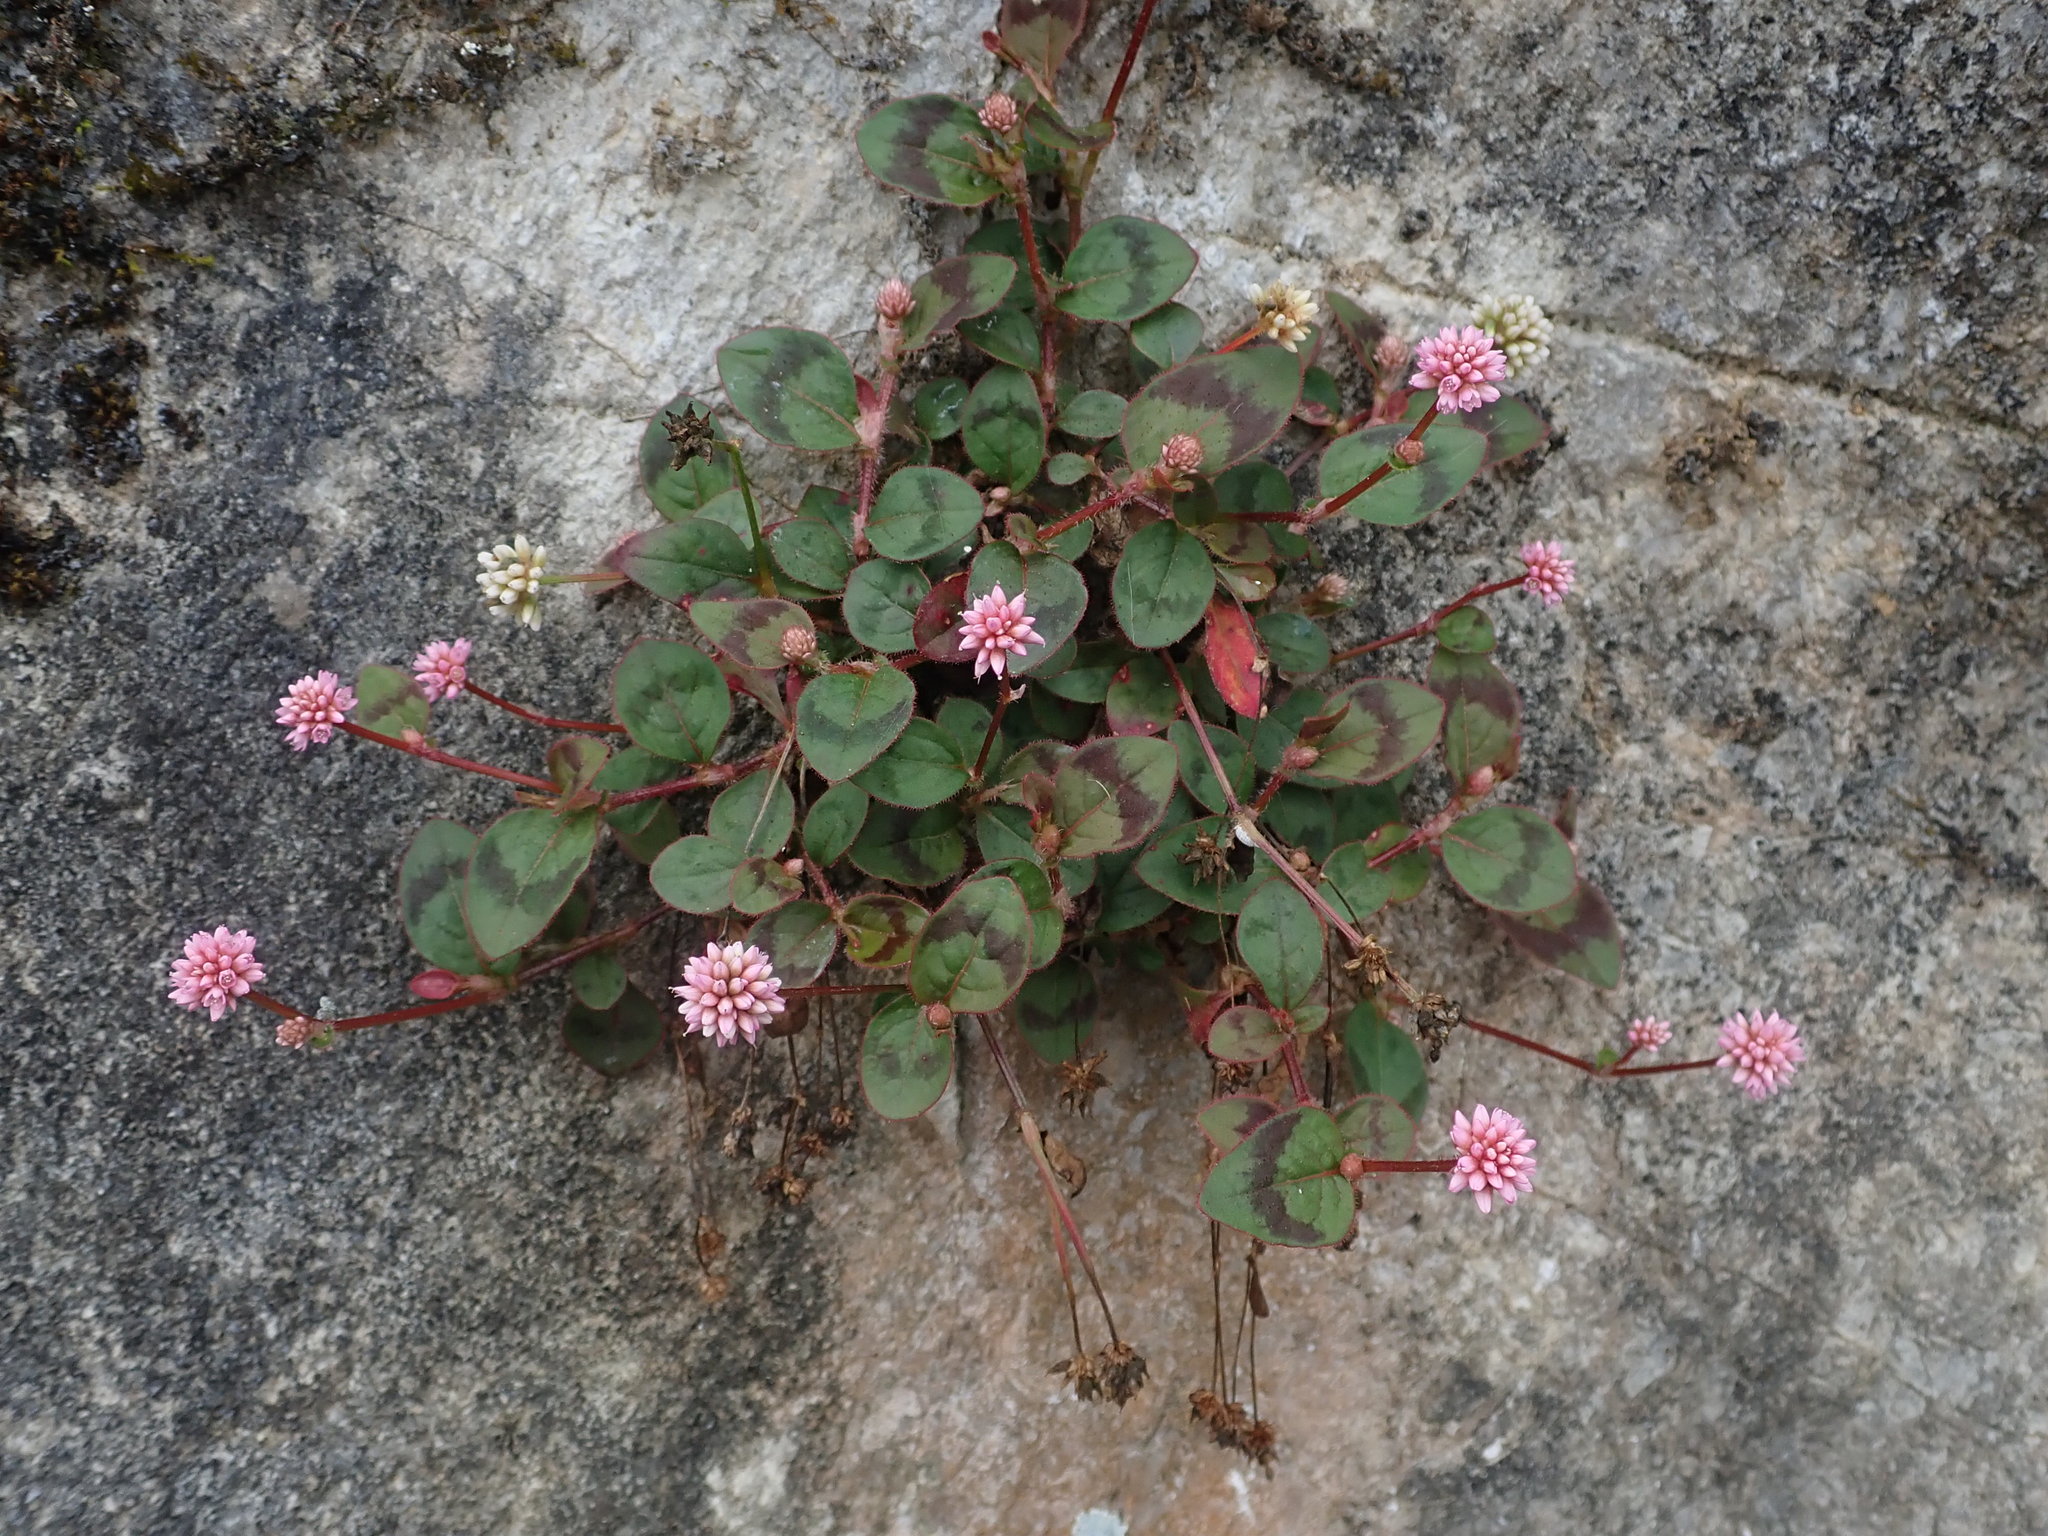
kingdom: Plantae
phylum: Tracheophyta
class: Magnoliopsida
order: Caryophyllales
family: Polygonaceae
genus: Persicaria
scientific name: Persicaria capitata
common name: Pinkhead smartweed
